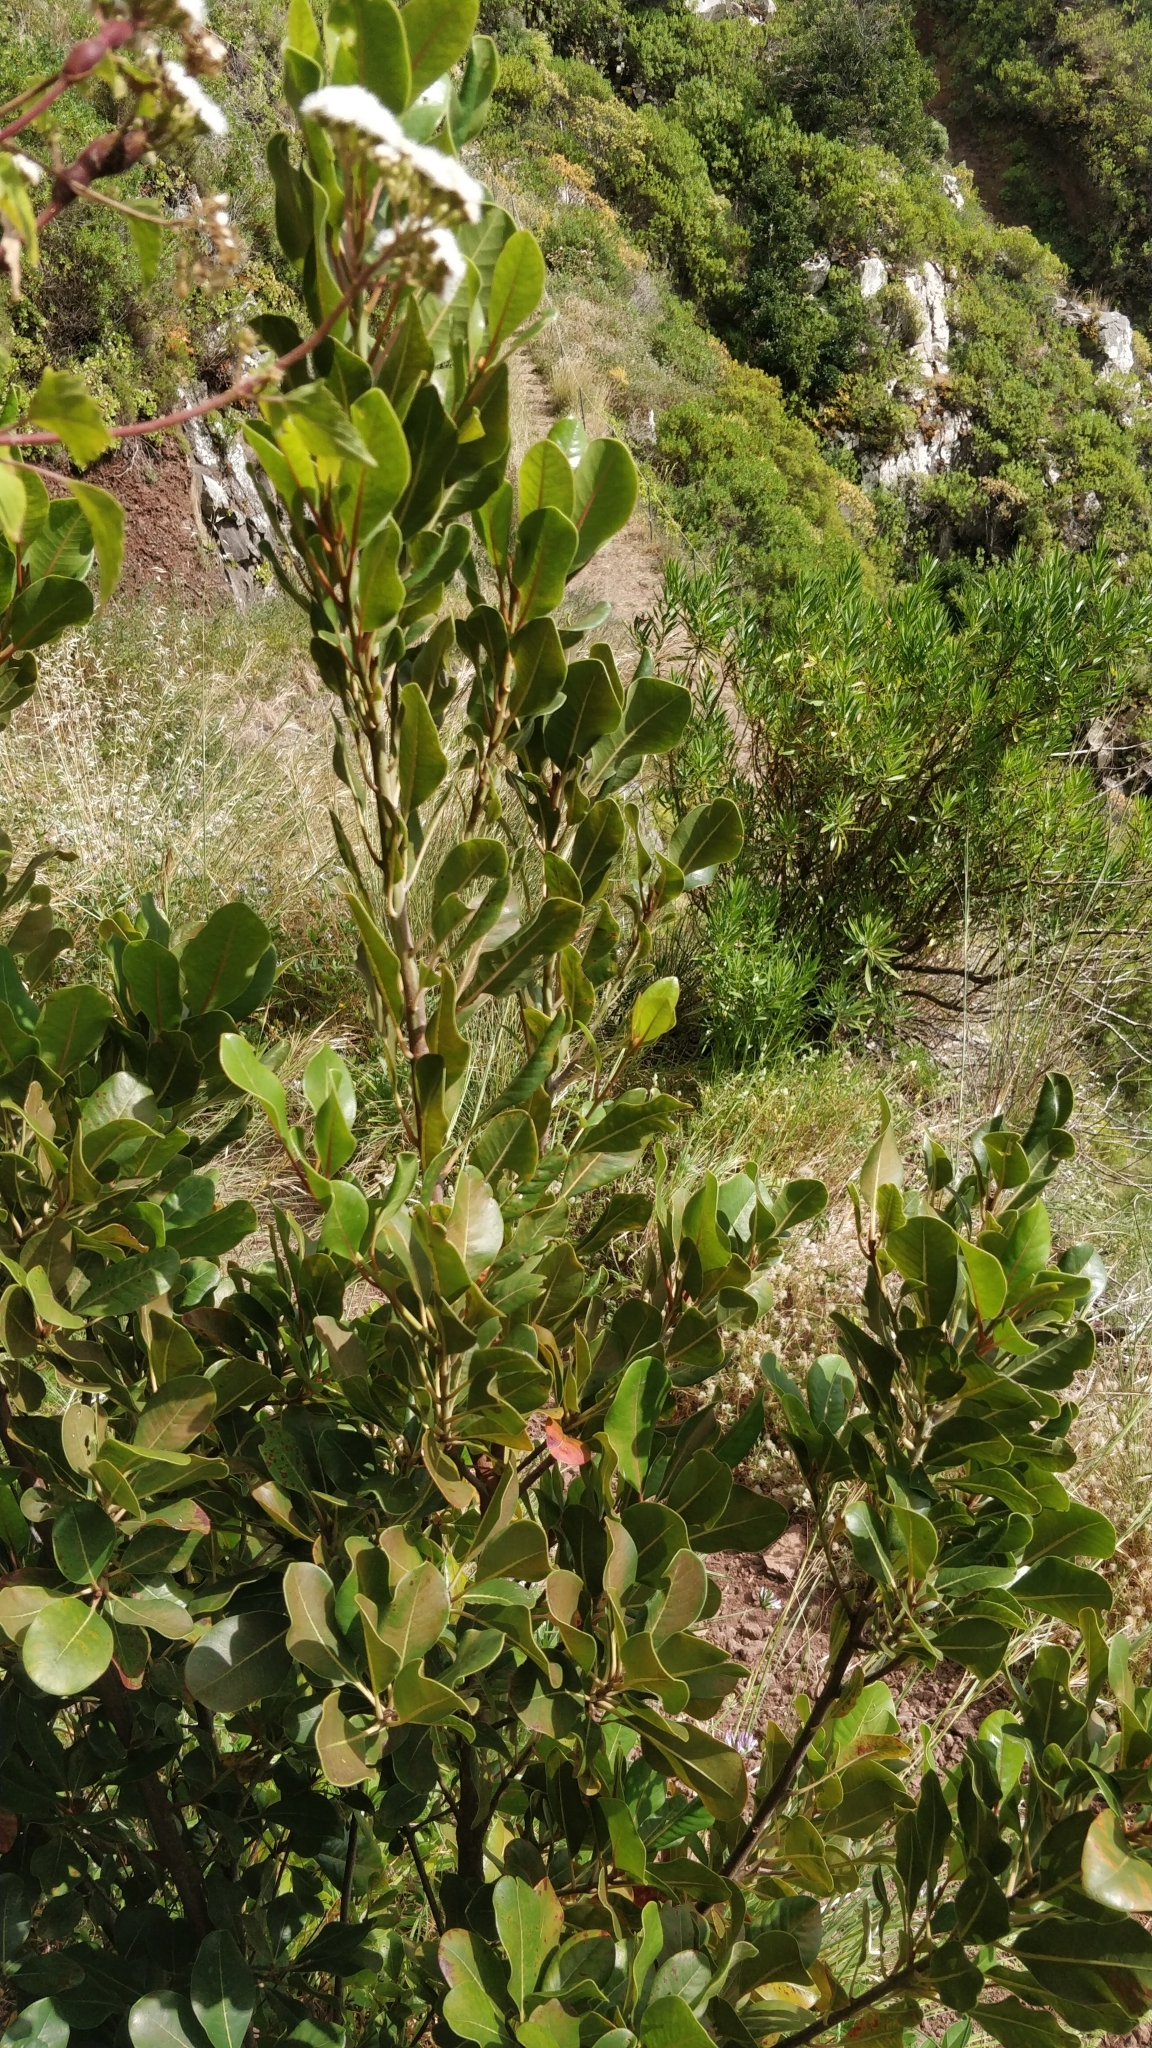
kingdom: Plantae
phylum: Tracheophyta
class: Magnoliopsida
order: Ericales
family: Sapotaceae
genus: Sideroxylon
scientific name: Sideroxylon mirmulans
